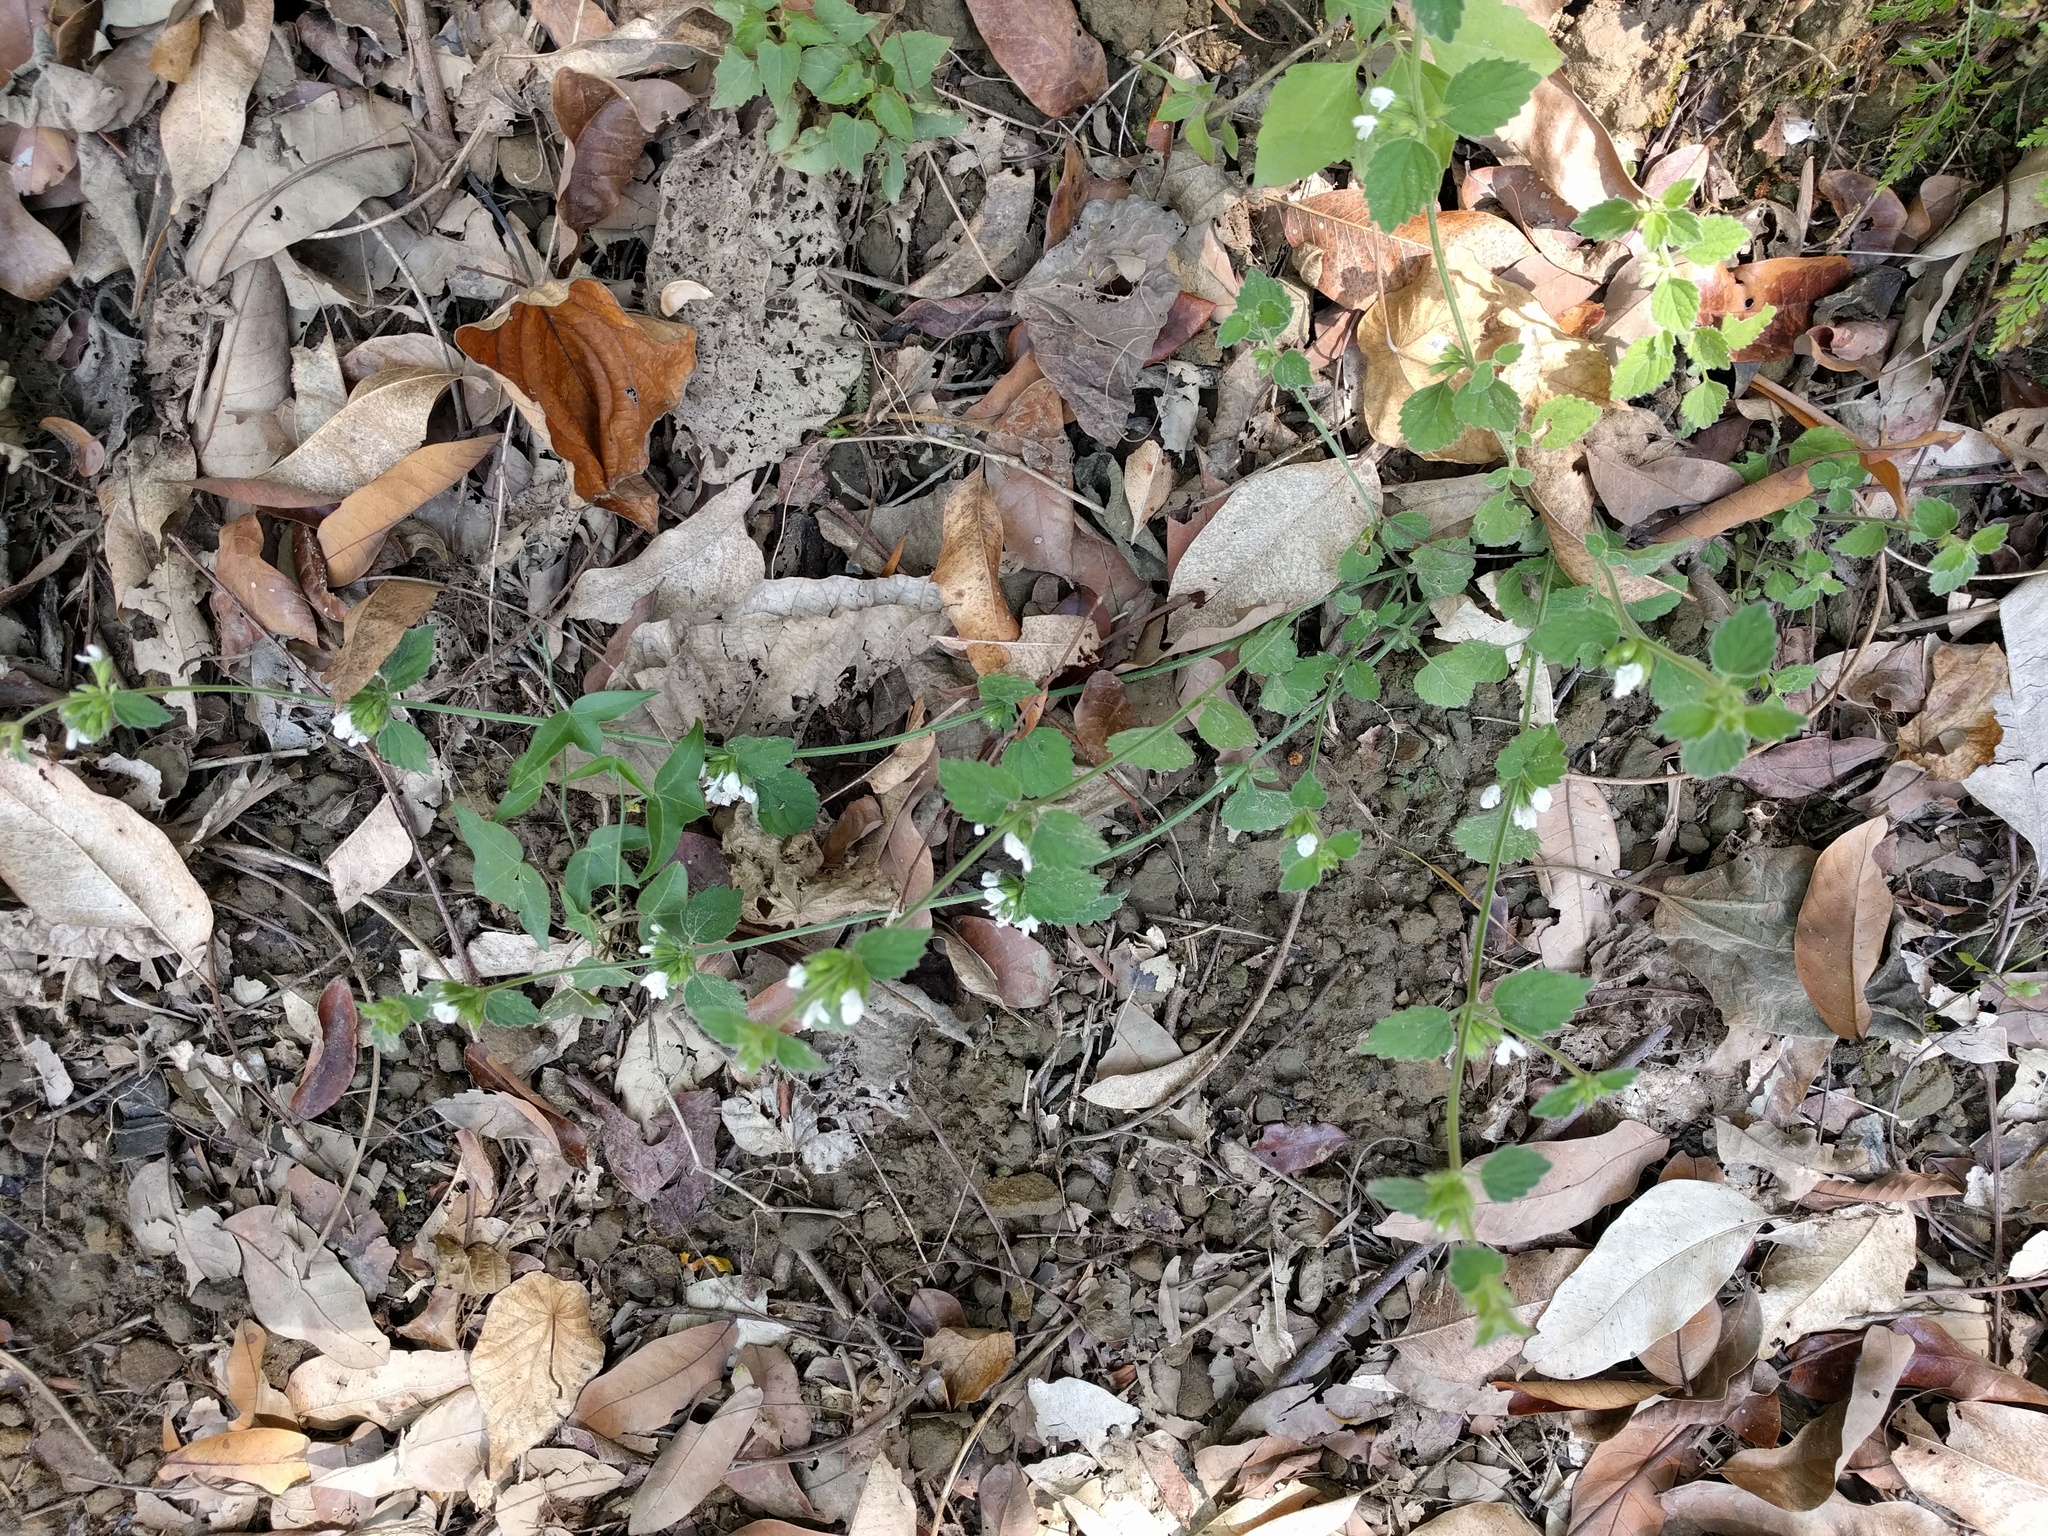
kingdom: Plantae
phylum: Tracheophyta
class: Magnoliopsida
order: Lamiales
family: Lamiaceae
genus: Leucas
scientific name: Leucas chinensis
